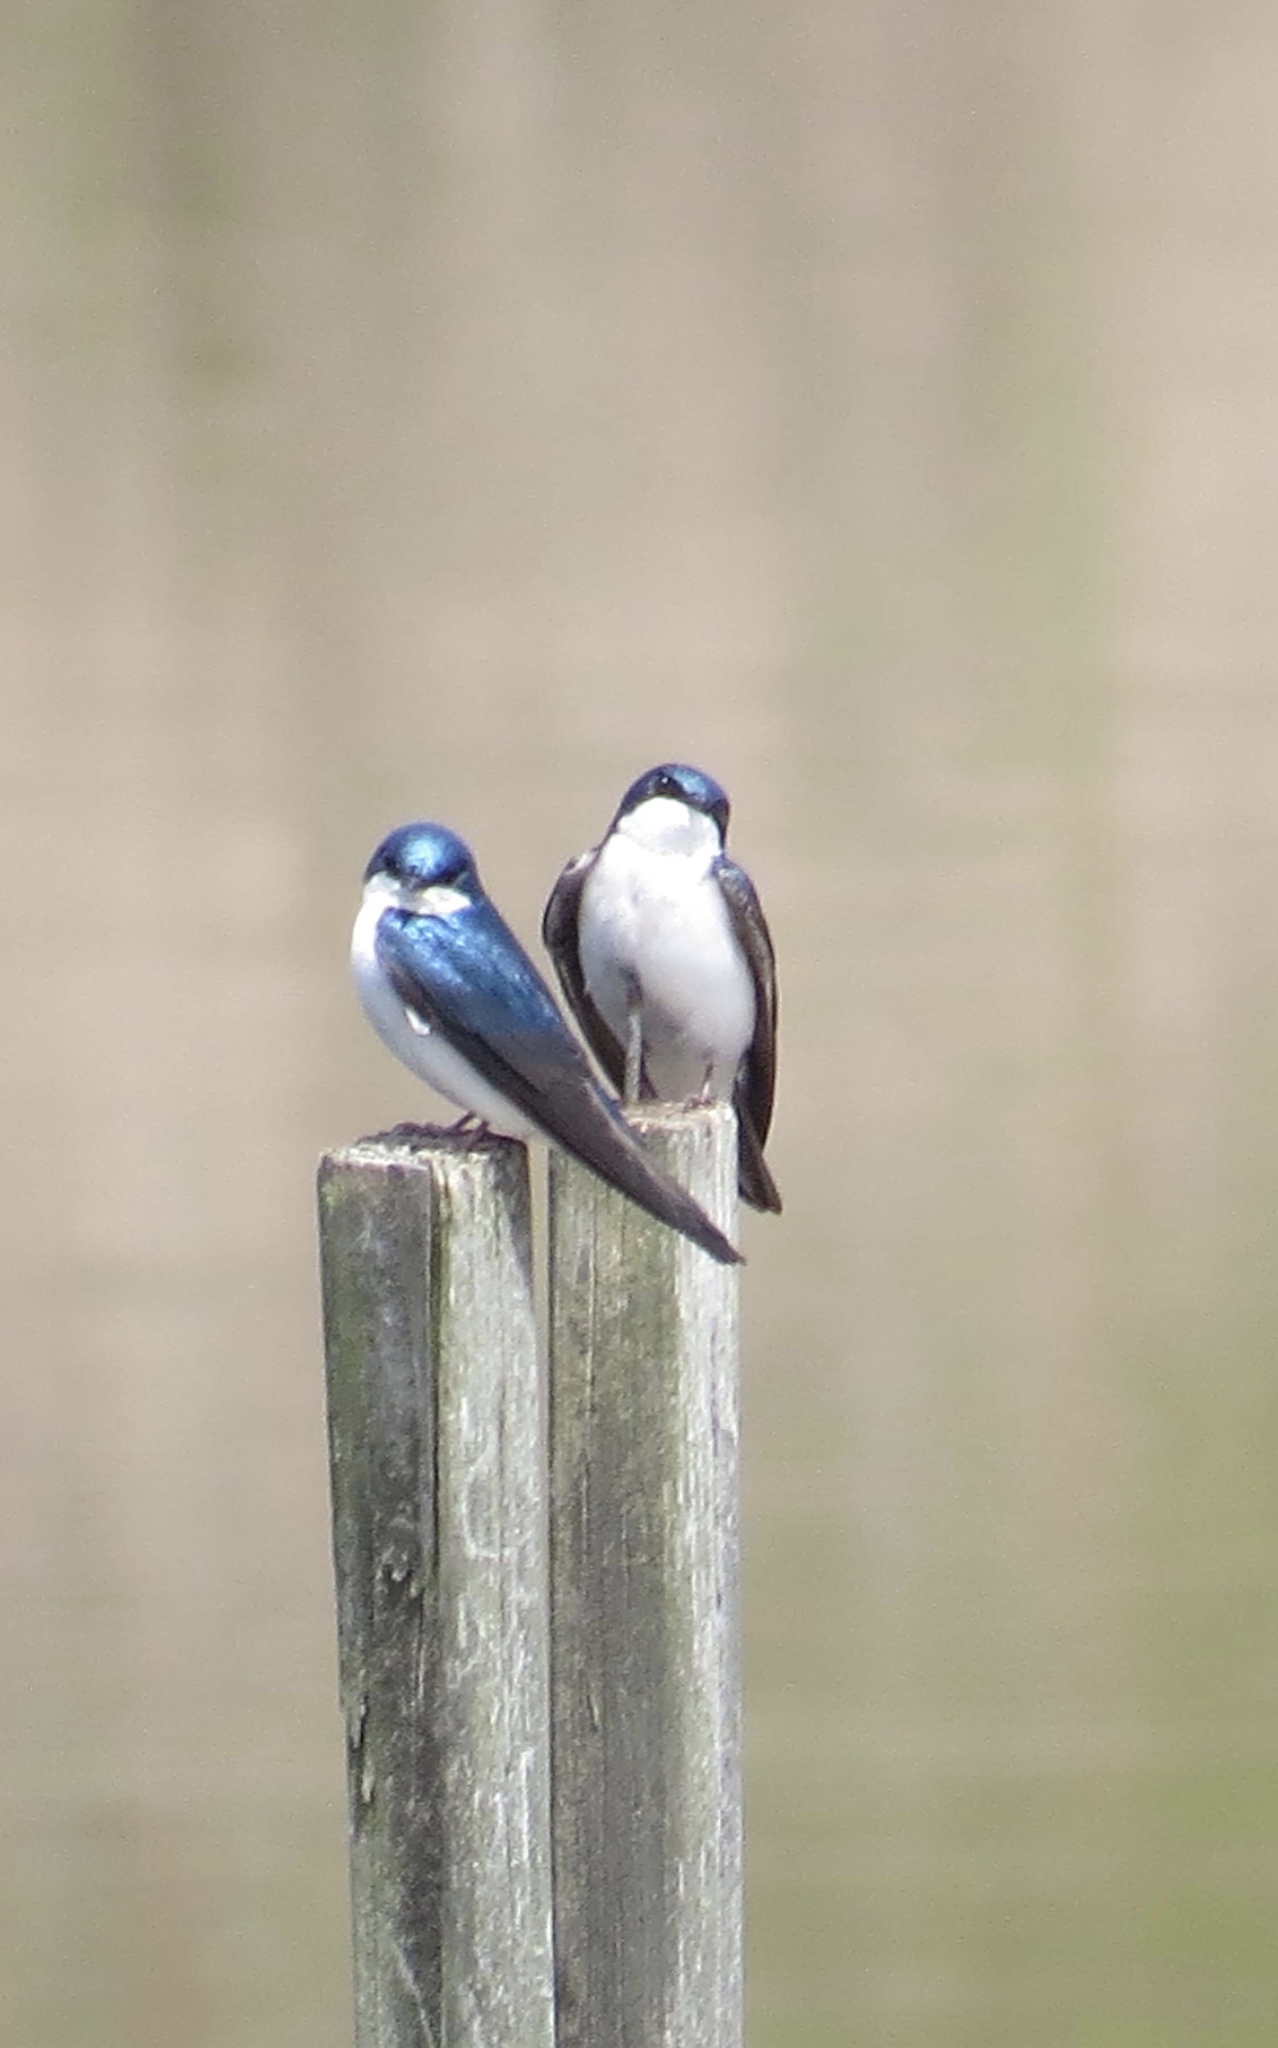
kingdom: Animalia
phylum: Chordata
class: Aves
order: Passeriformes
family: Hirundinidae
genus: Tachycineta
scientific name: Tachycineta bicolor
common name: Tree swallow
